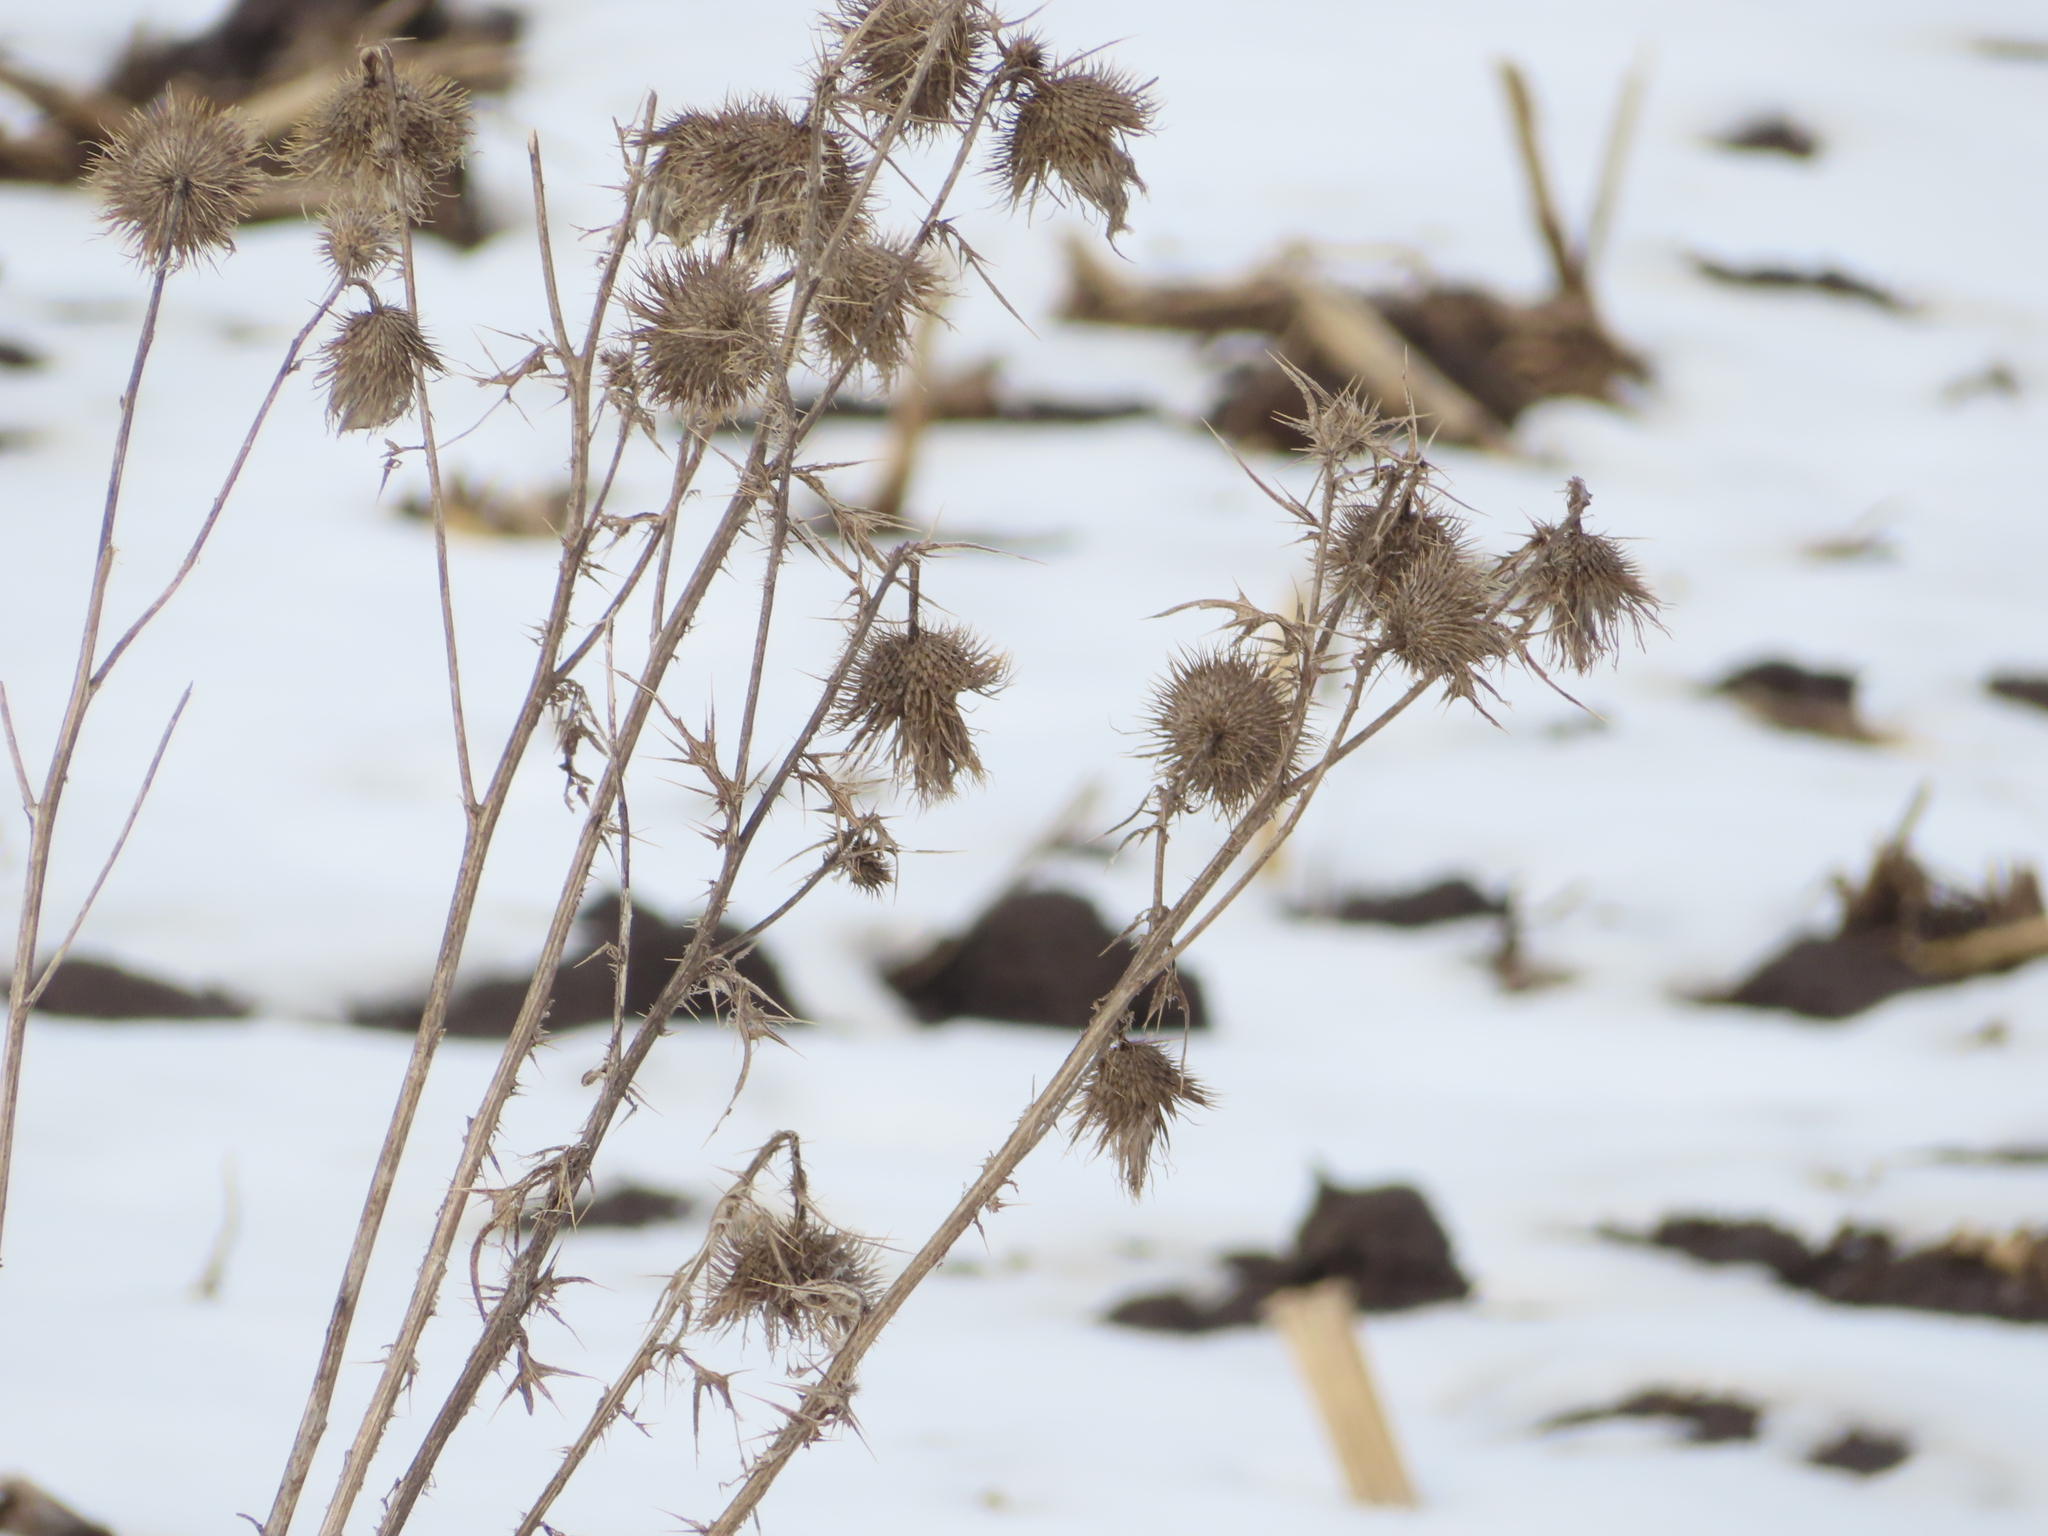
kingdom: Plantae
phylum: Tracheophyta
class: Magnoliopsida
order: Asterales
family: Asteraceae
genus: Cirsium
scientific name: Cirsium vulgare
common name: Bull thistle
